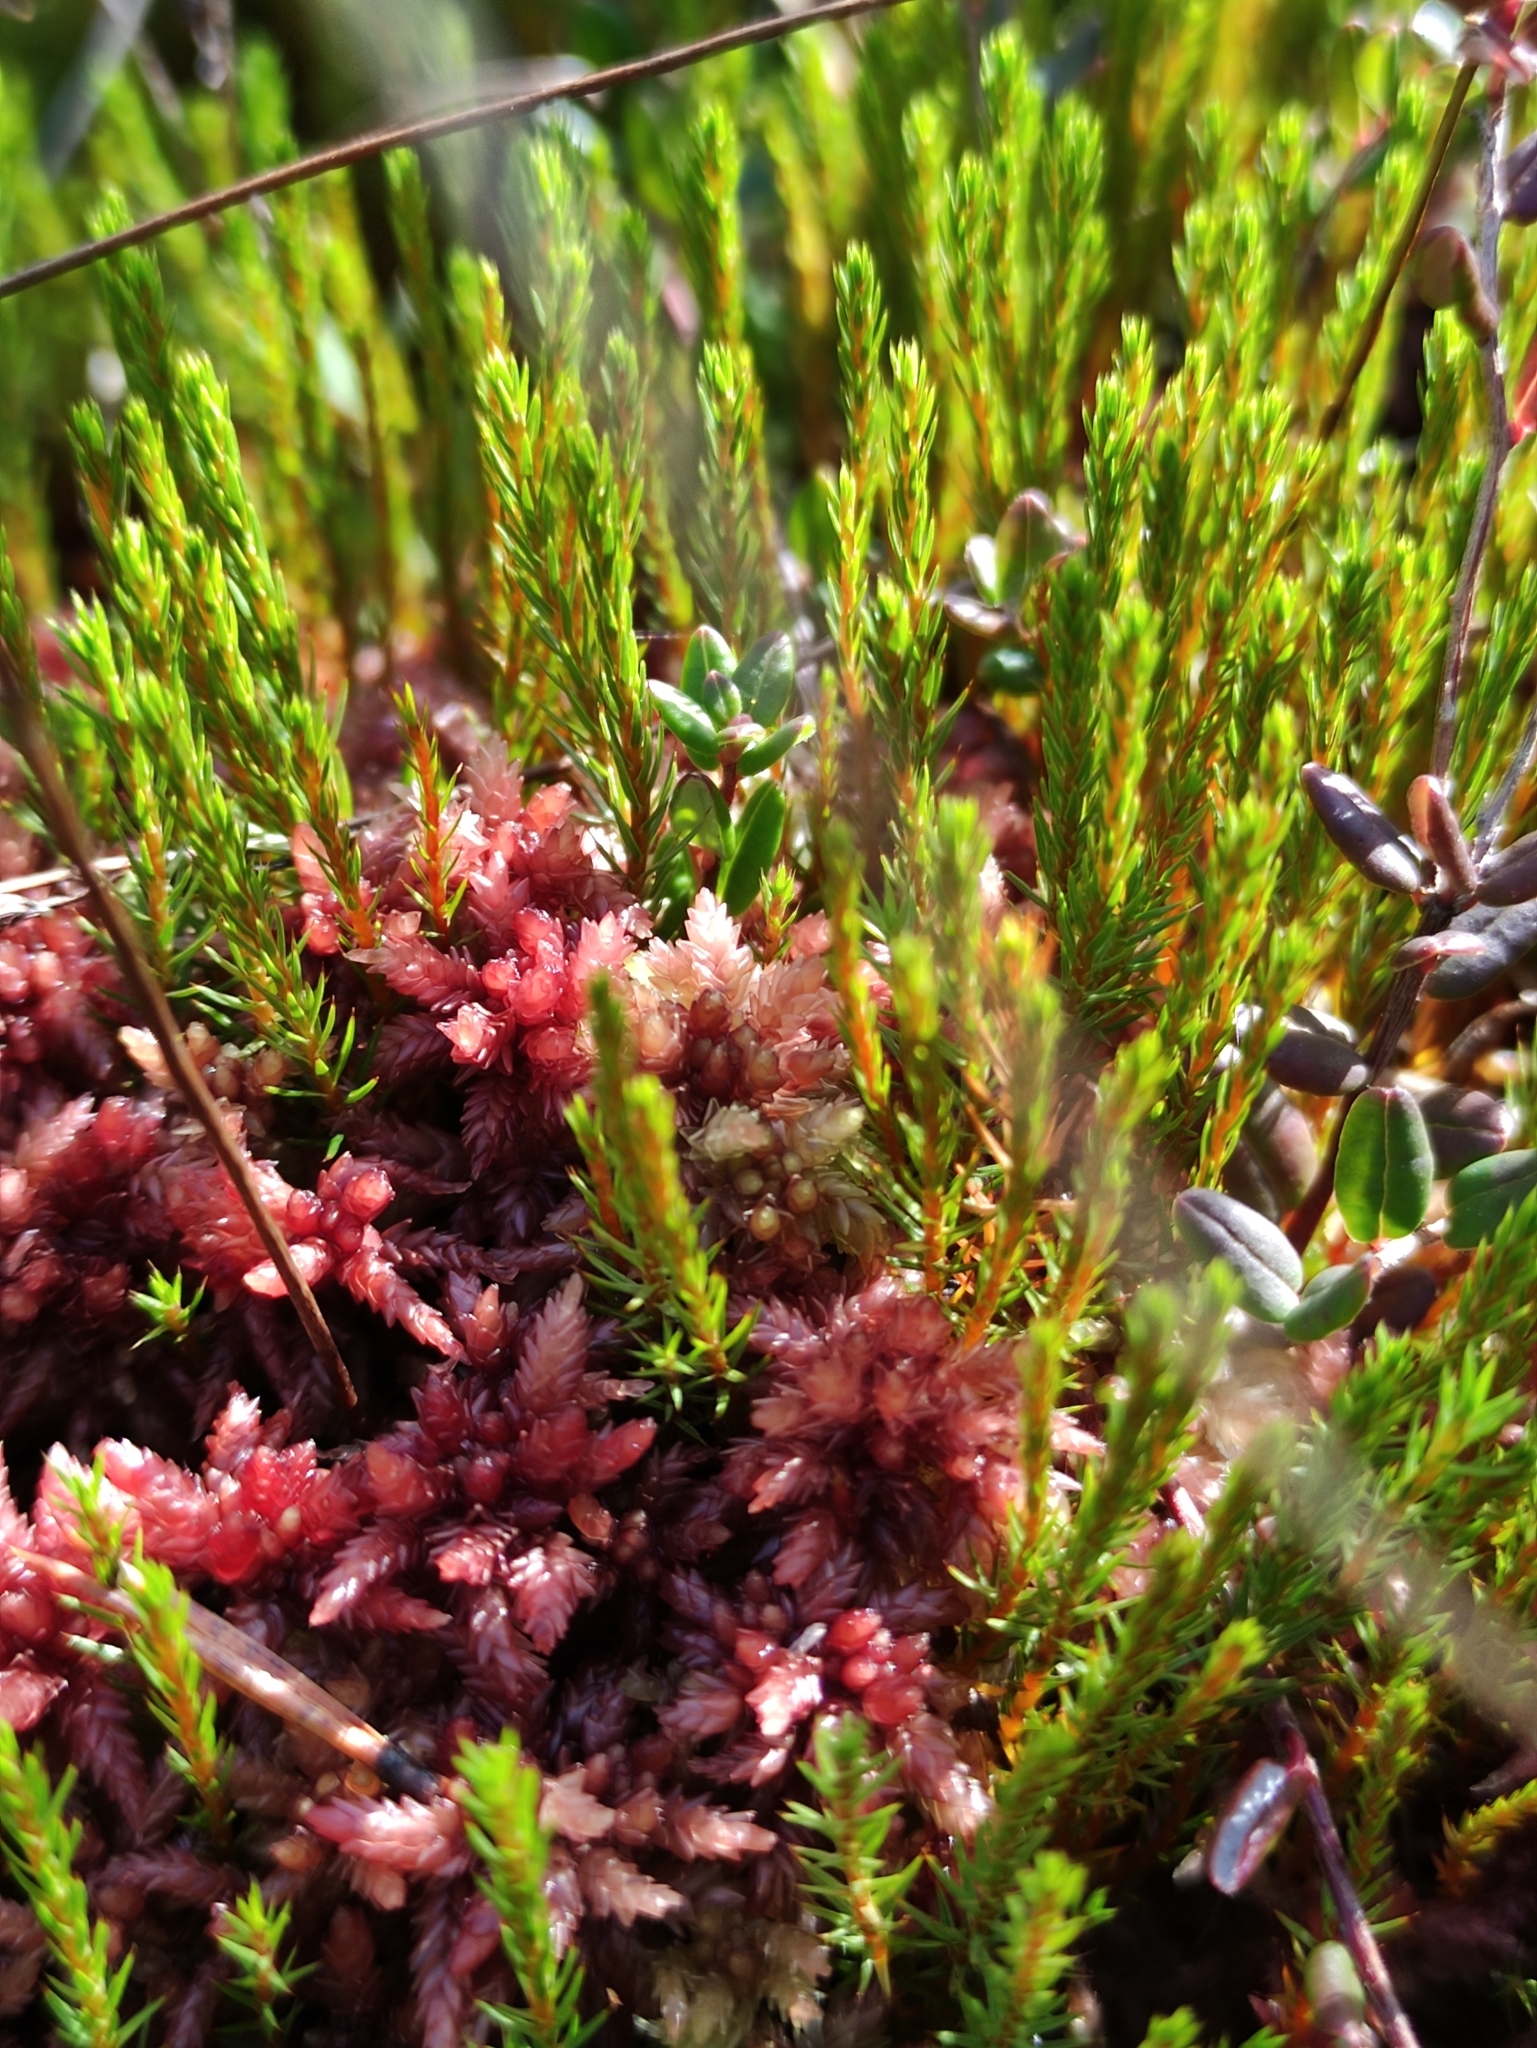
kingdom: Plantae
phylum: Bryophyta
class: Polytrichopsida
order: Polytrichales
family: Polytrichaceae
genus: Polytrichum
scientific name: Polytrichum strictum
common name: Bog haircap moss
